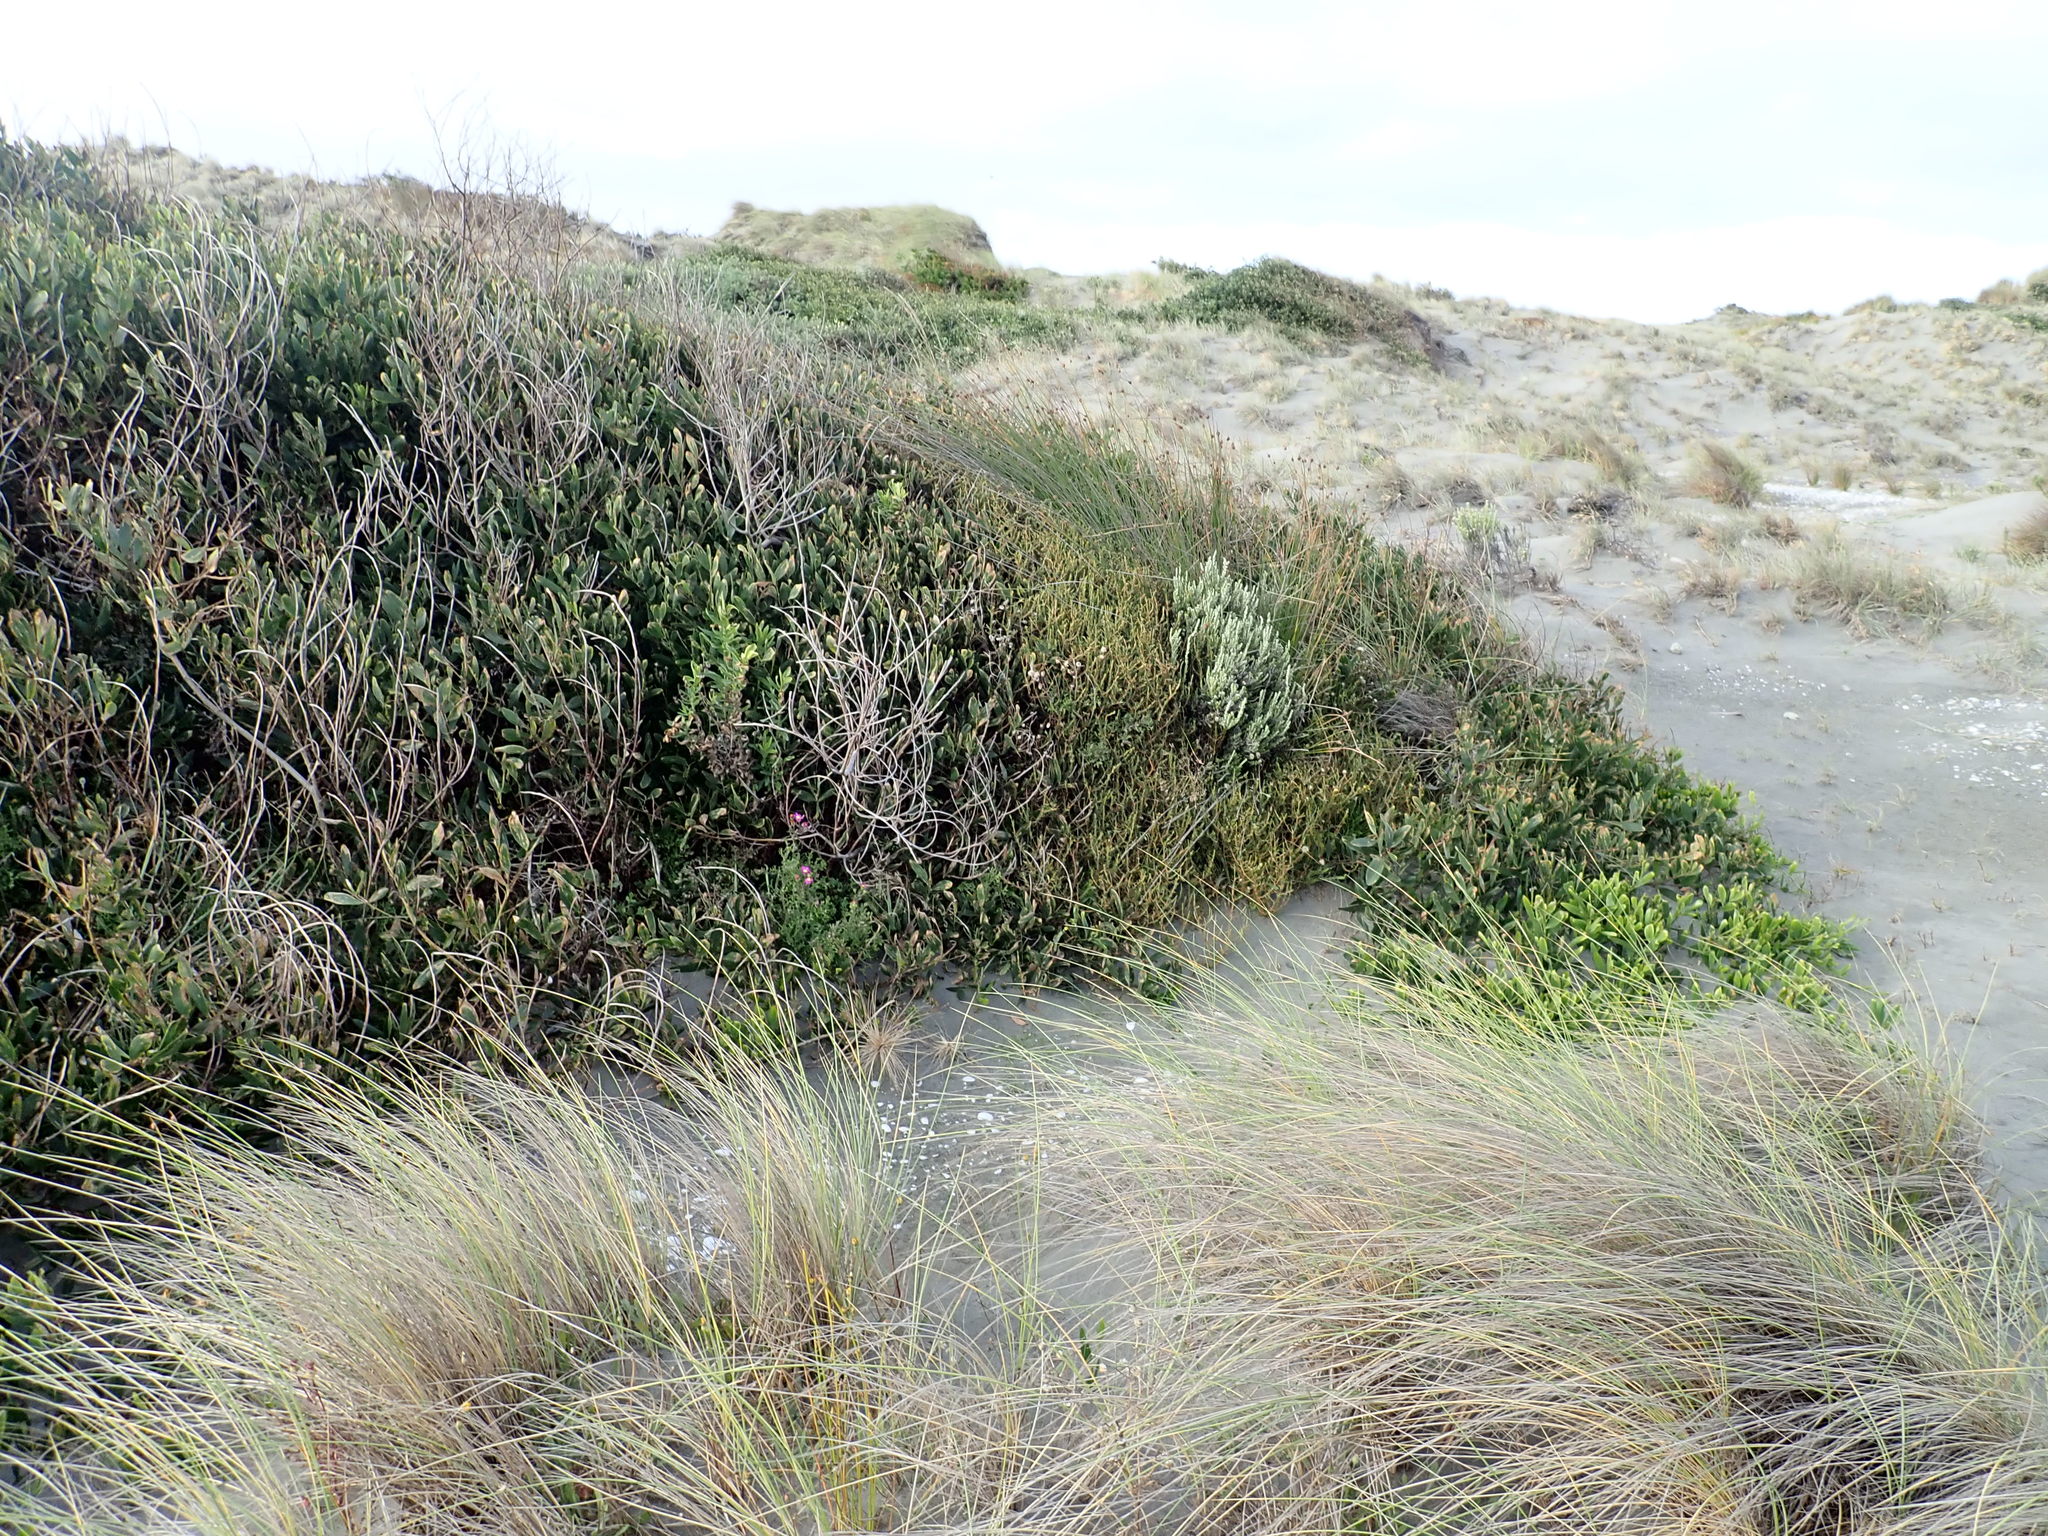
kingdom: Plantae
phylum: Tracheophyta
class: Magnoliopsida
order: Gentianales
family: Rubiaceae
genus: Coprosma
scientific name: Coprosma acerosa
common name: Sand coprosma
